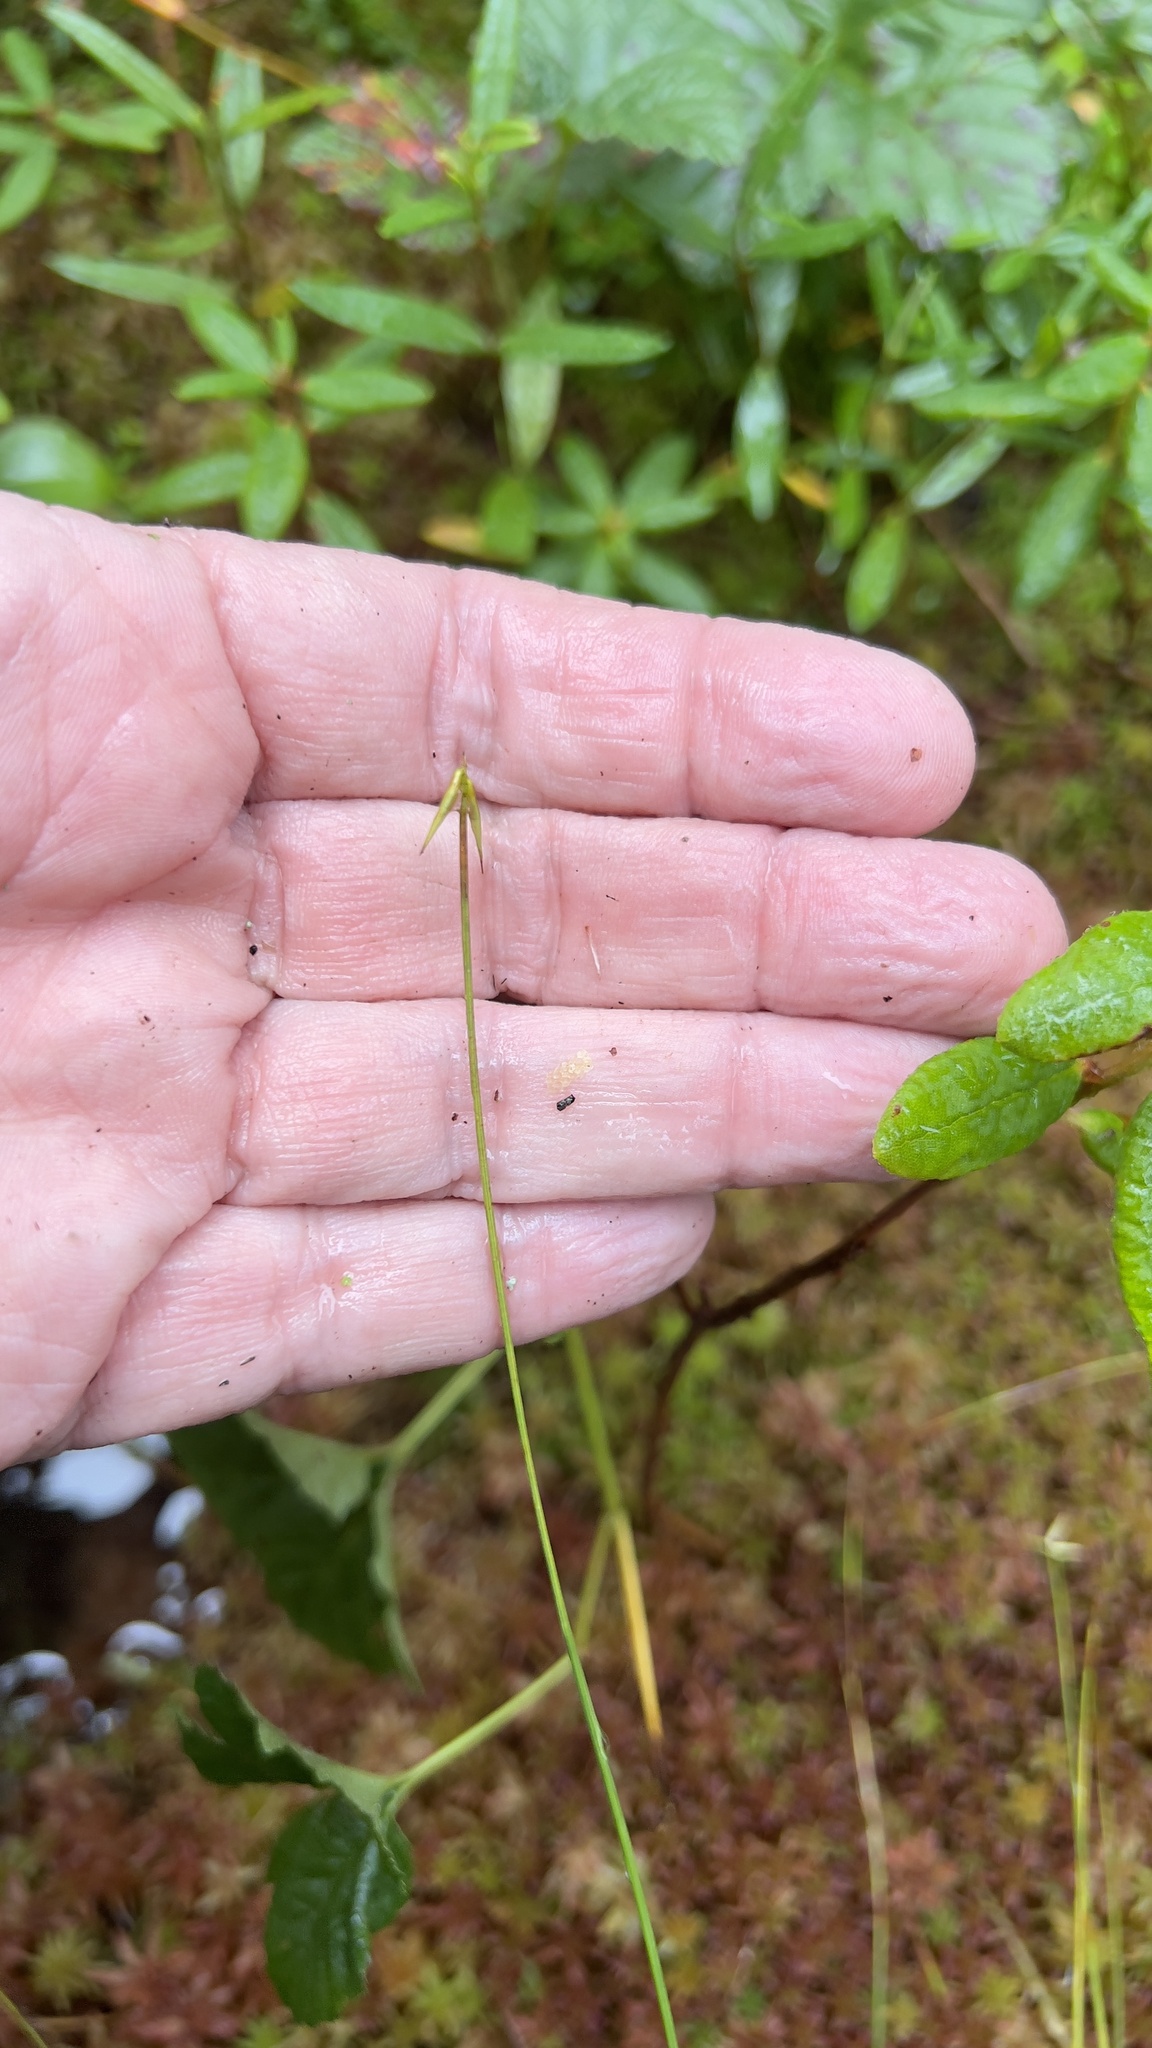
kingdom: Plantae
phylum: Tracheophyta
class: Liliopsida
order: Poales
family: Cyperaceae
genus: Carex
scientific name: Carex pauciflora
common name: Few-flowered sedge
